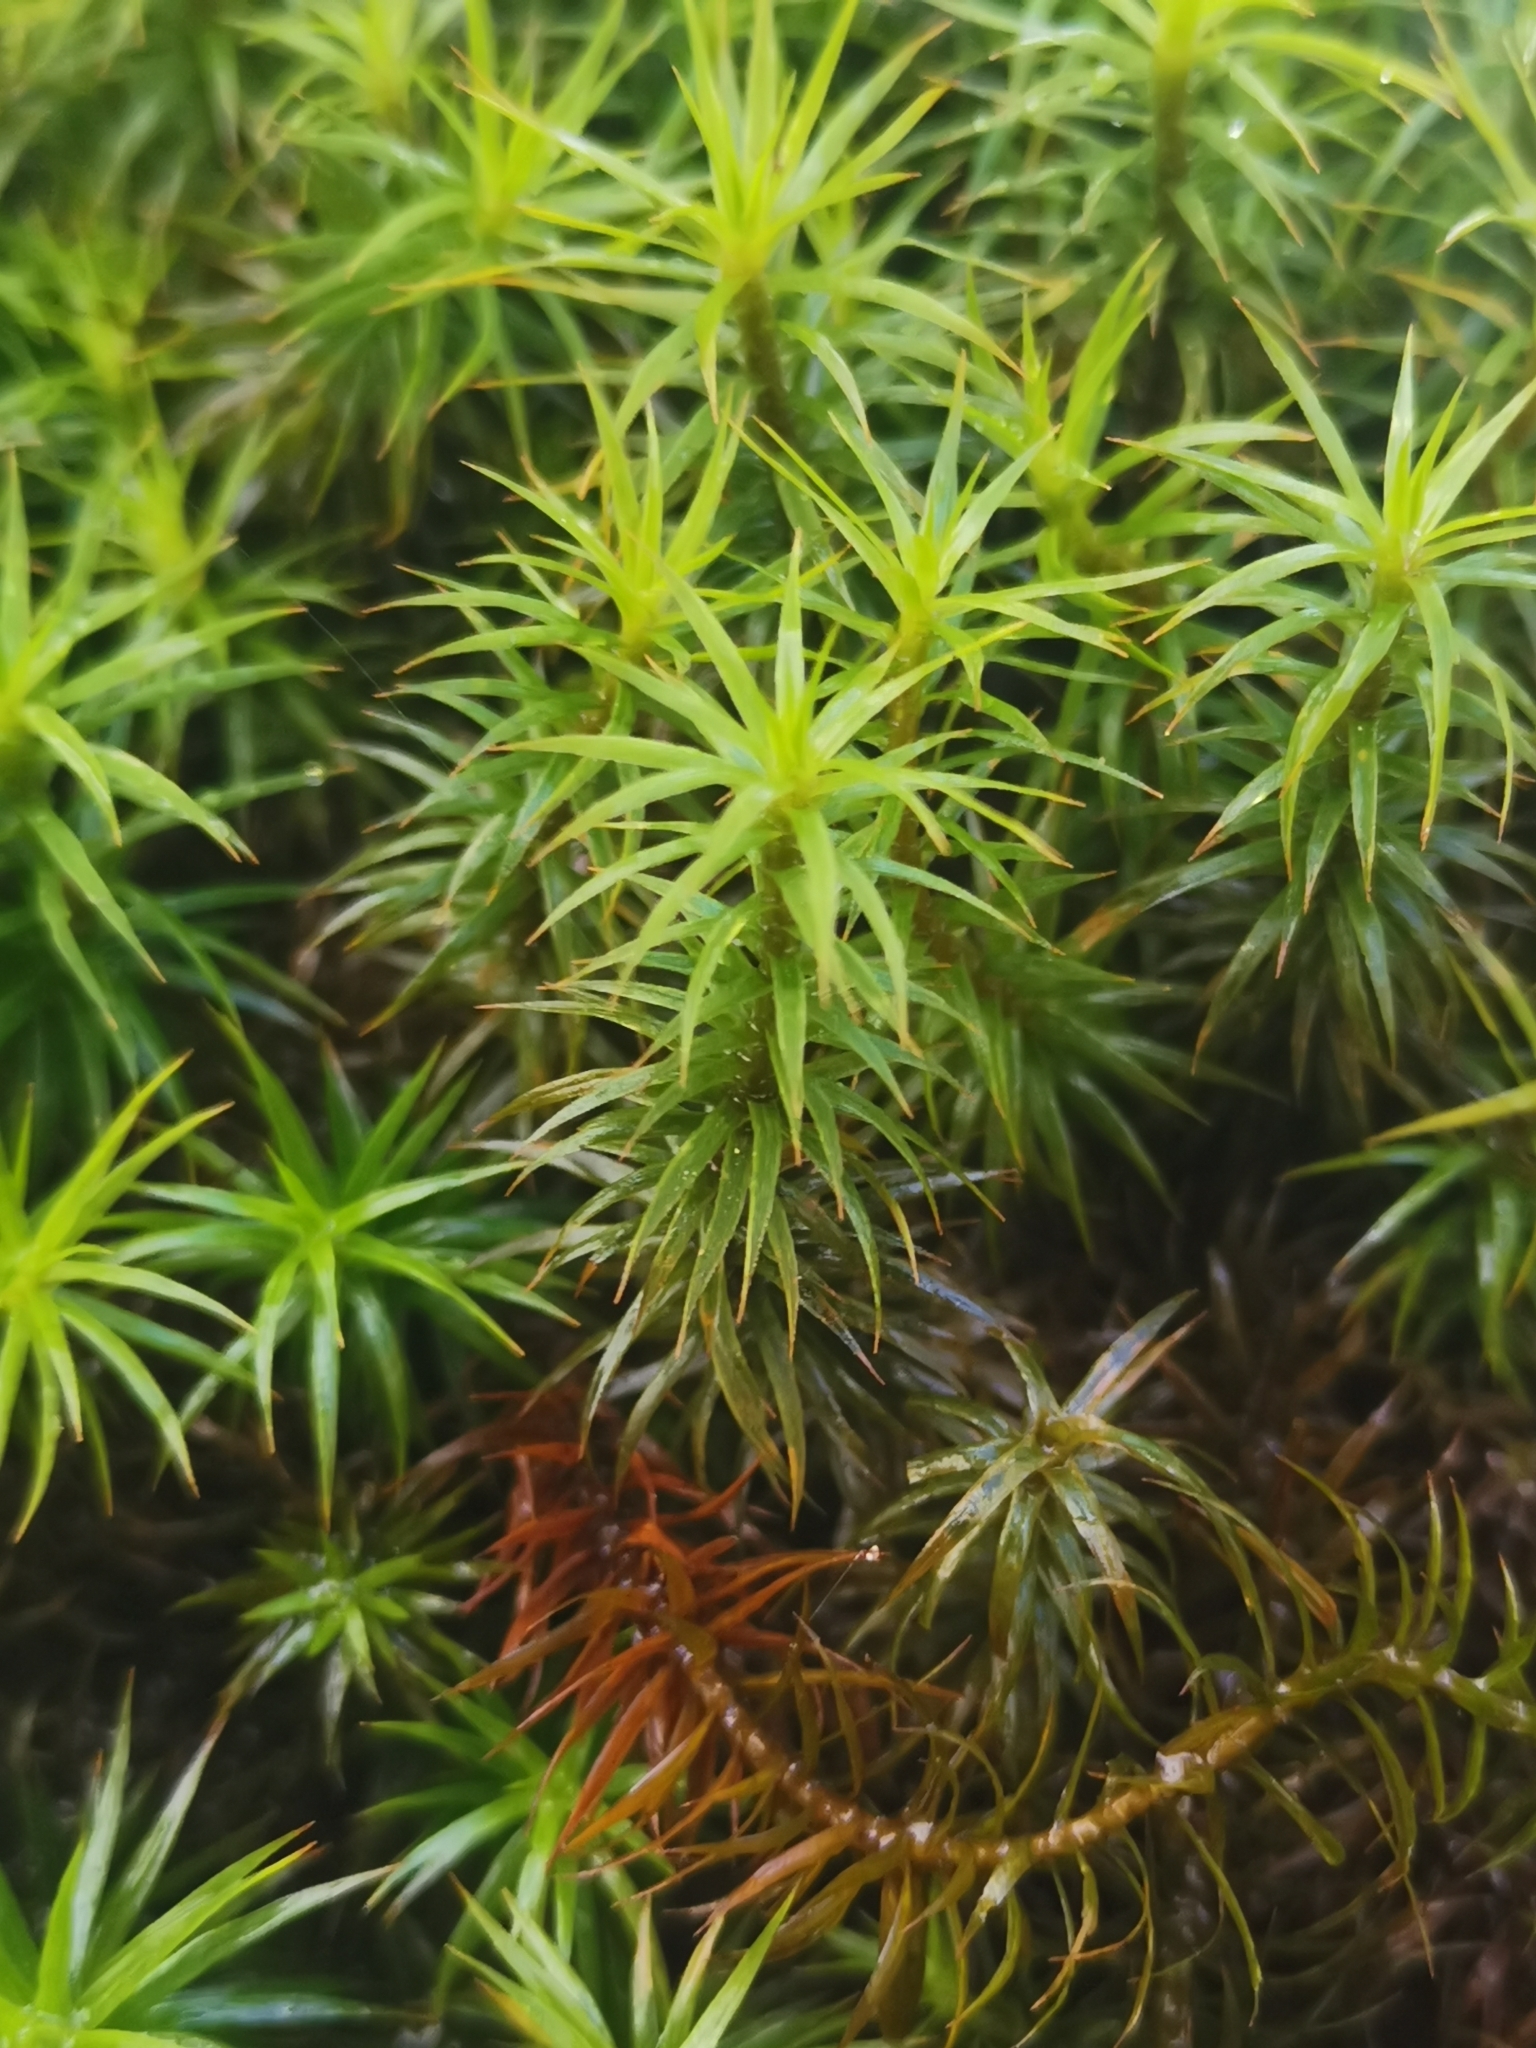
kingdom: Plantae
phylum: Bryophyta
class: Polytrichopsida
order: Polytrichales
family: Polytrichaceae
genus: Polytrichum
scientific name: Polytrichum formosum
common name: Bank haircap moss
